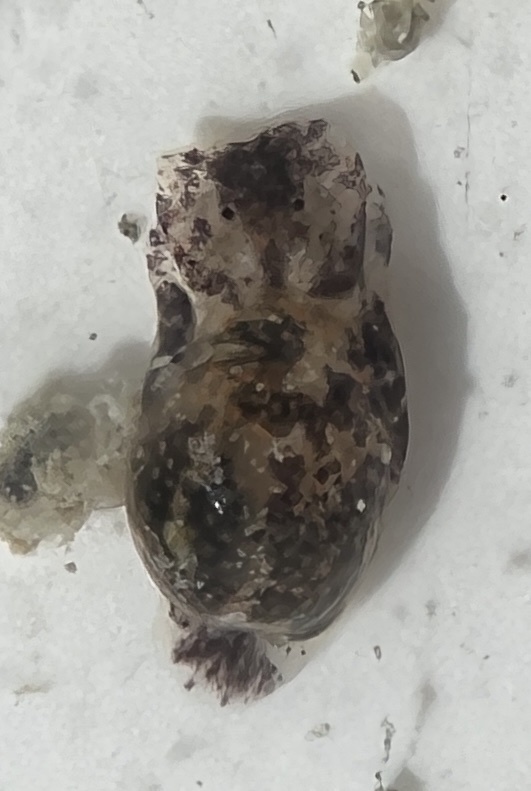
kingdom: Animalia
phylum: Mollusca
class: Gastropoda
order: Cephalaspidea
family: Haminoeidae
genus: Haminoea
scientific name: Haminoea antillarum
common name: Antilles glassy-bubble
